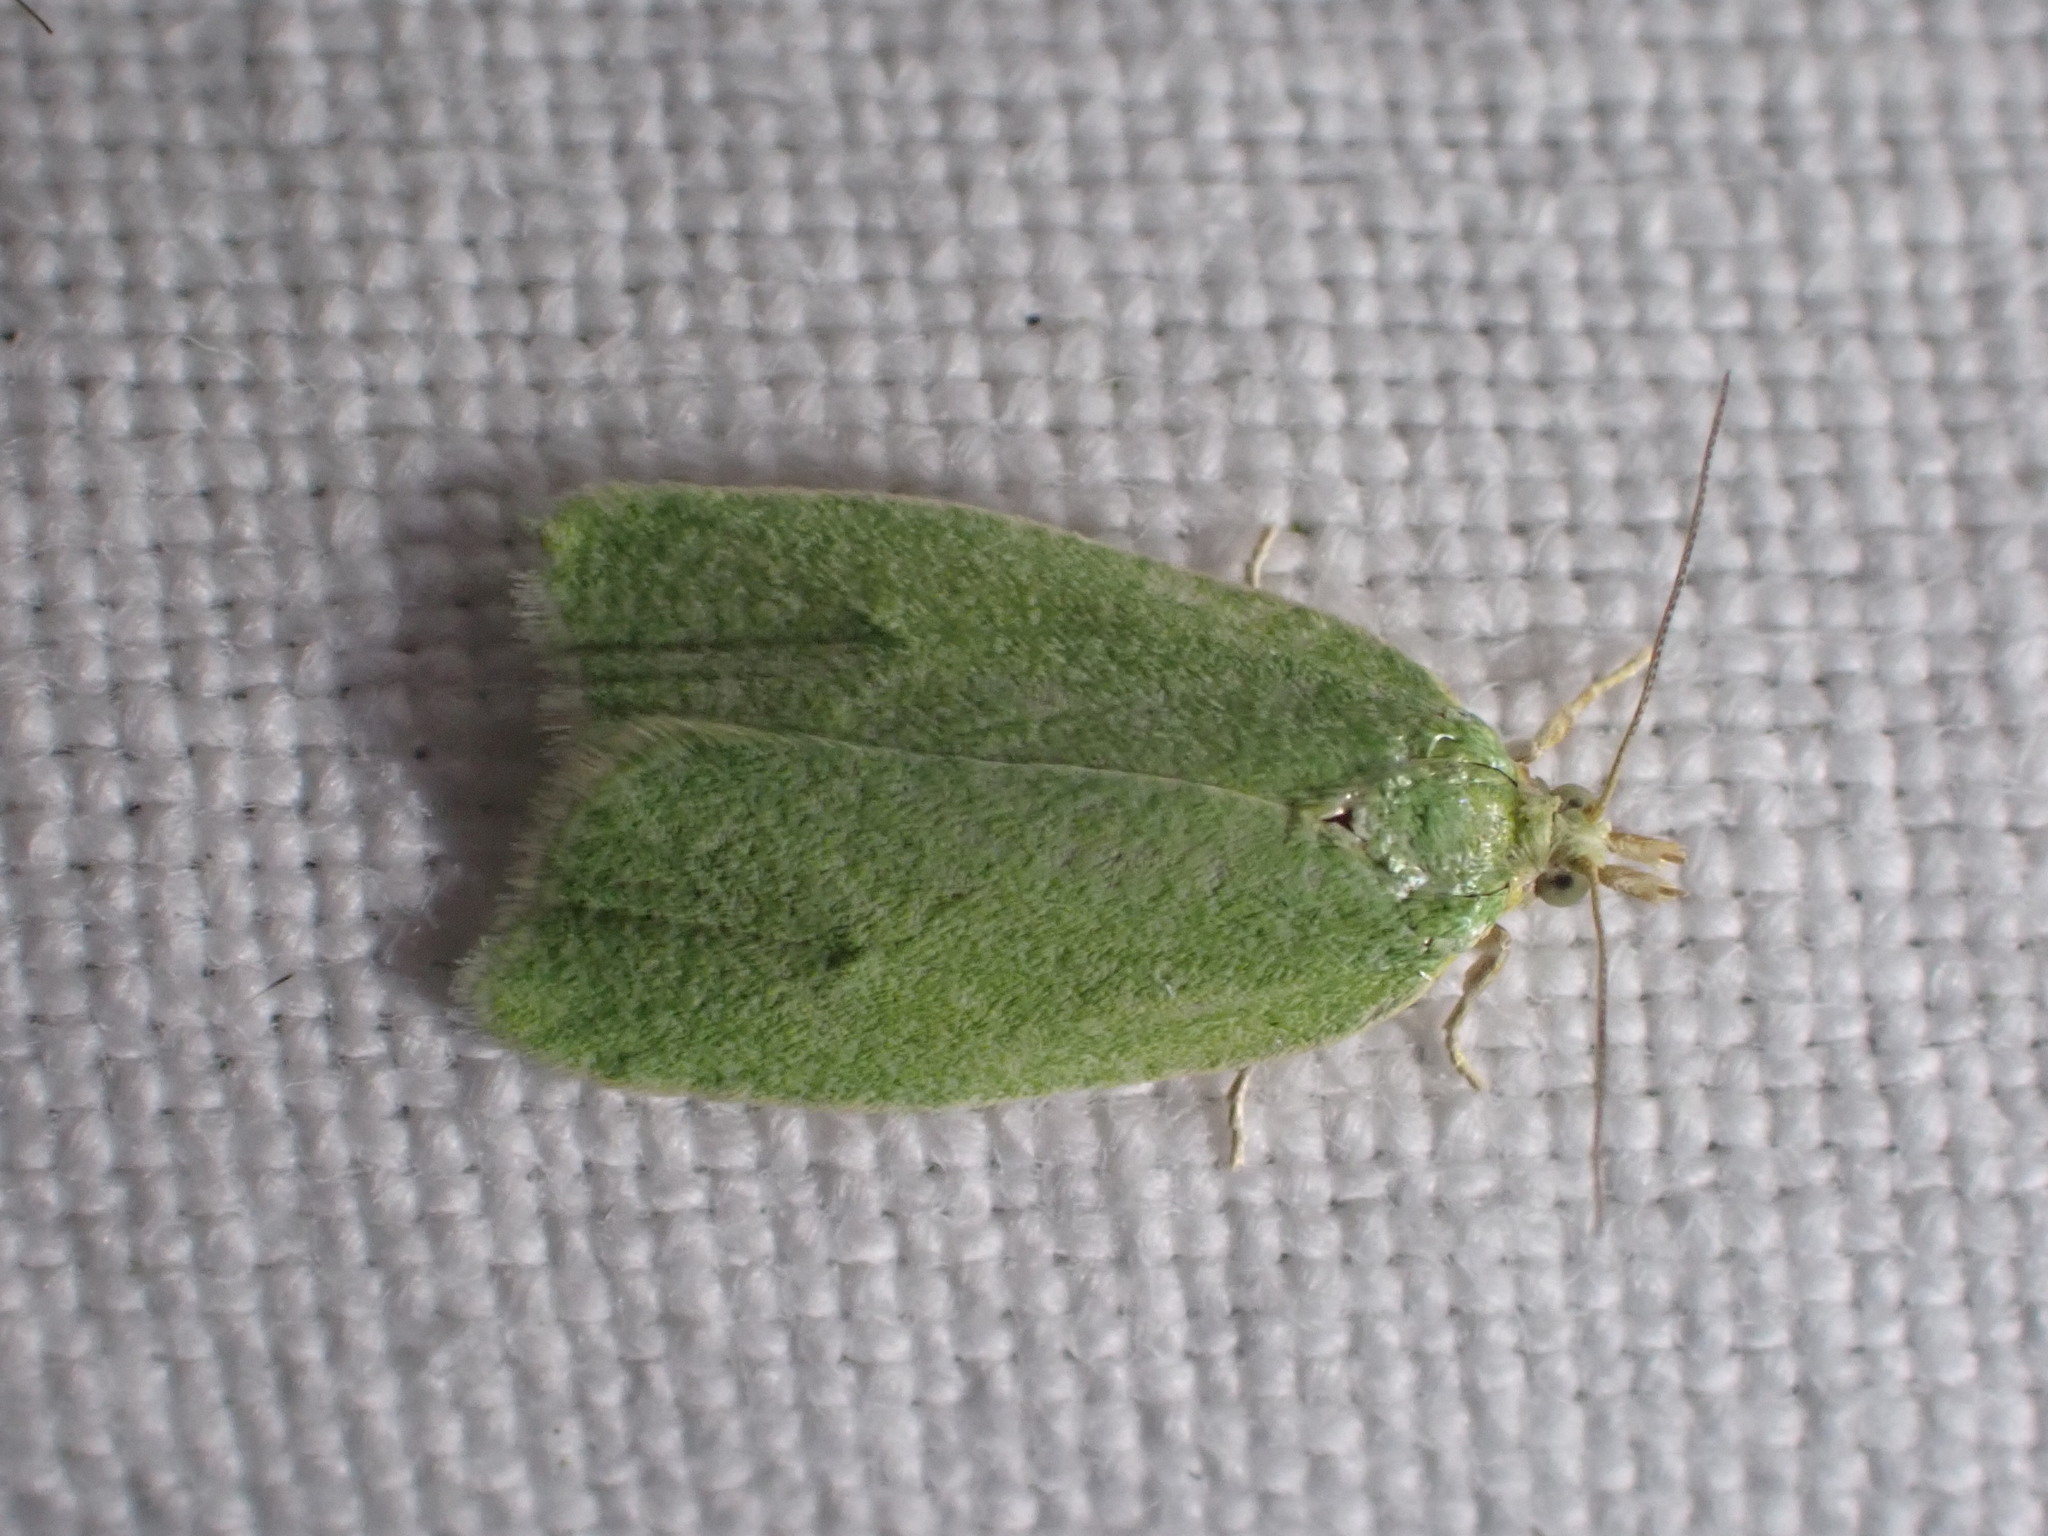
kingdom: Animalia
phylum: Arthropoda
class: Insecta
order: Lepidoptera
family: Tortricidae
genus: Tortrix
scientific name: Tortrix viridana
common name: Green oak tortrix
